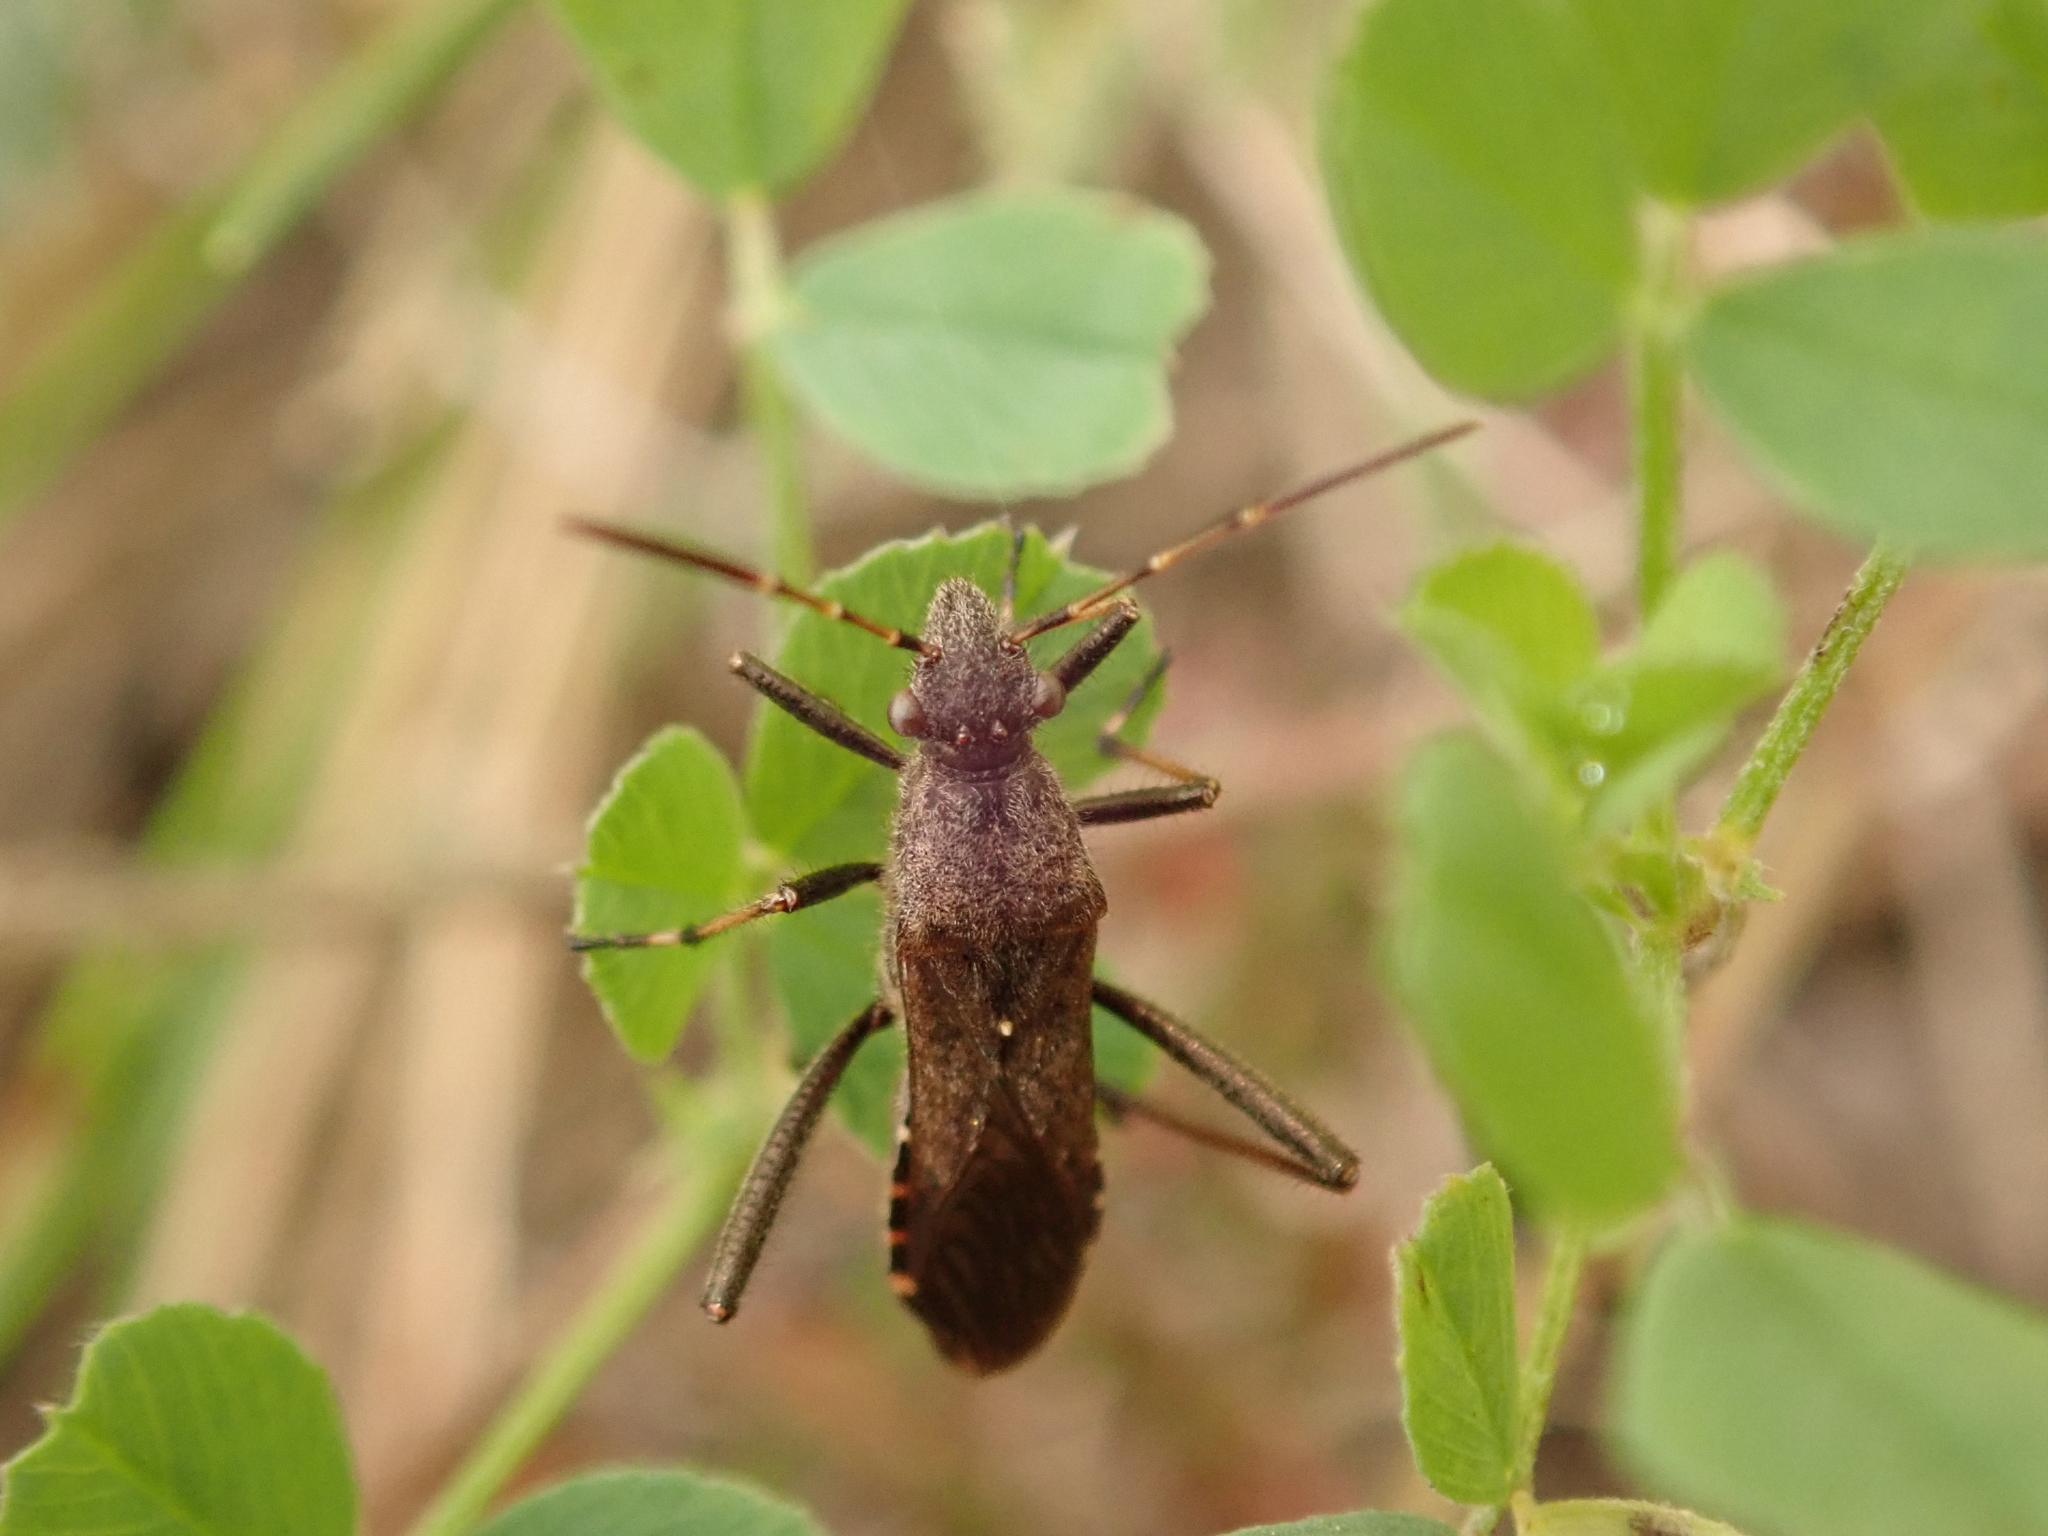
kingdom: Animalia
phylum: Arthropoda
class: Insecta
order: Hemiptera
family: Alydidae
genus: Alydus
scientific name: Alydus calcaratus
